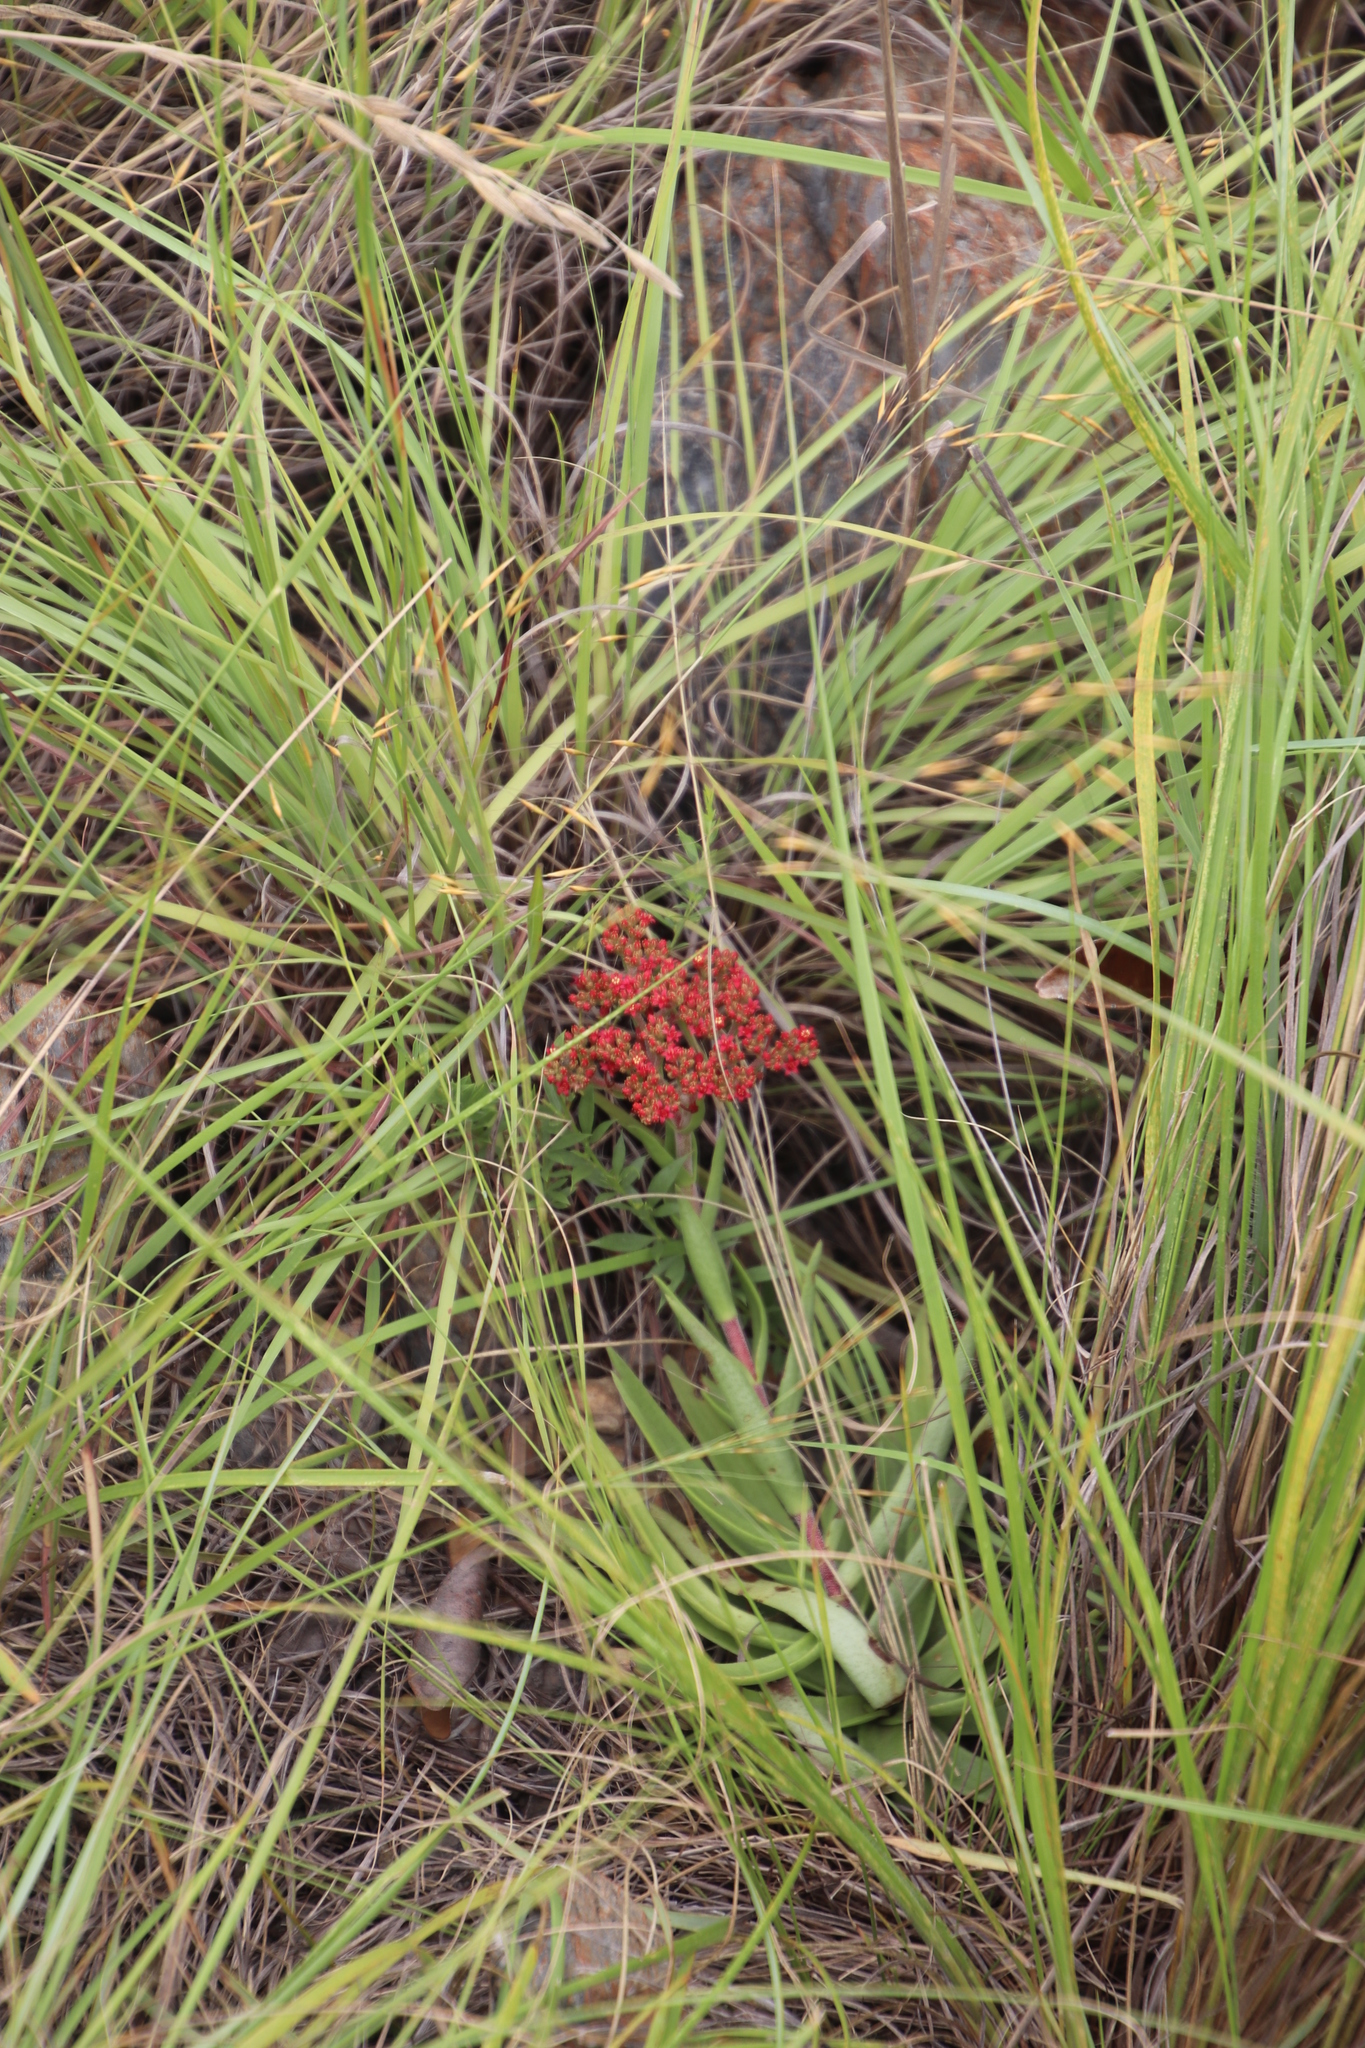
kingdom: Plantae
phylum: Tracheophyta
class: Magnoliopsida
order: Saxifragales
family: Crassulaceae
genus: Crassula
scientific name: Crassula alba
